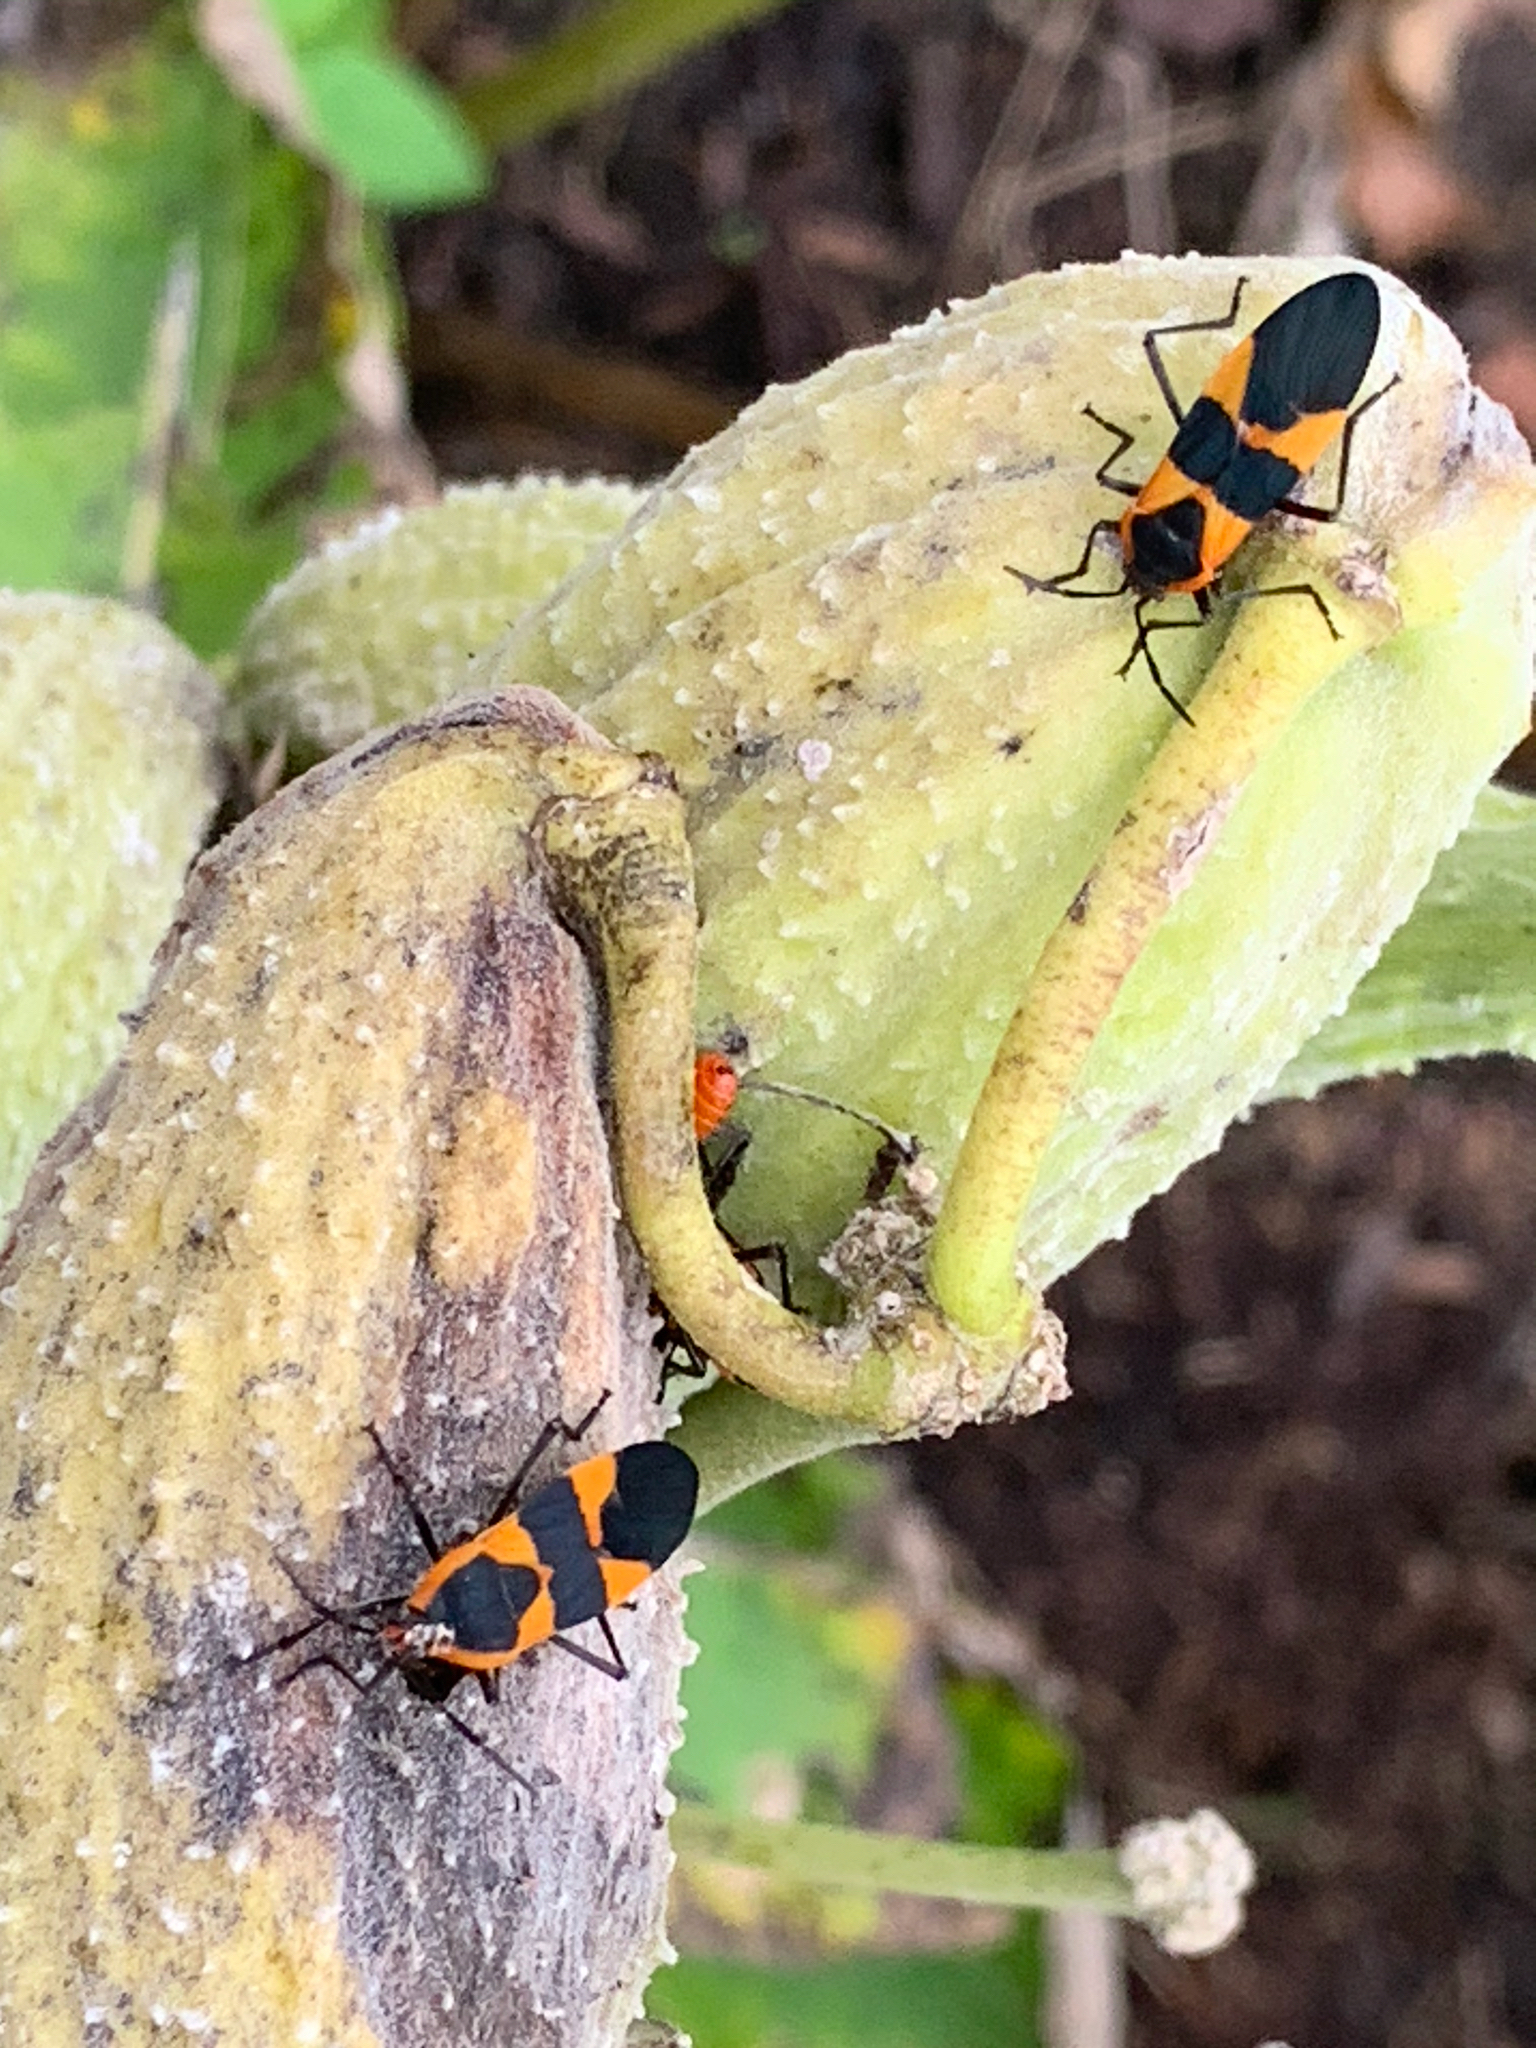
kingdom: Animalia
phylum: Arthropoda
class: Insecta
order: Hemiptera
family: Lygaeidae
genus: Oncopeltus
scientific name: Oncopeltus fasciatus
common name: Large milkweed bug
